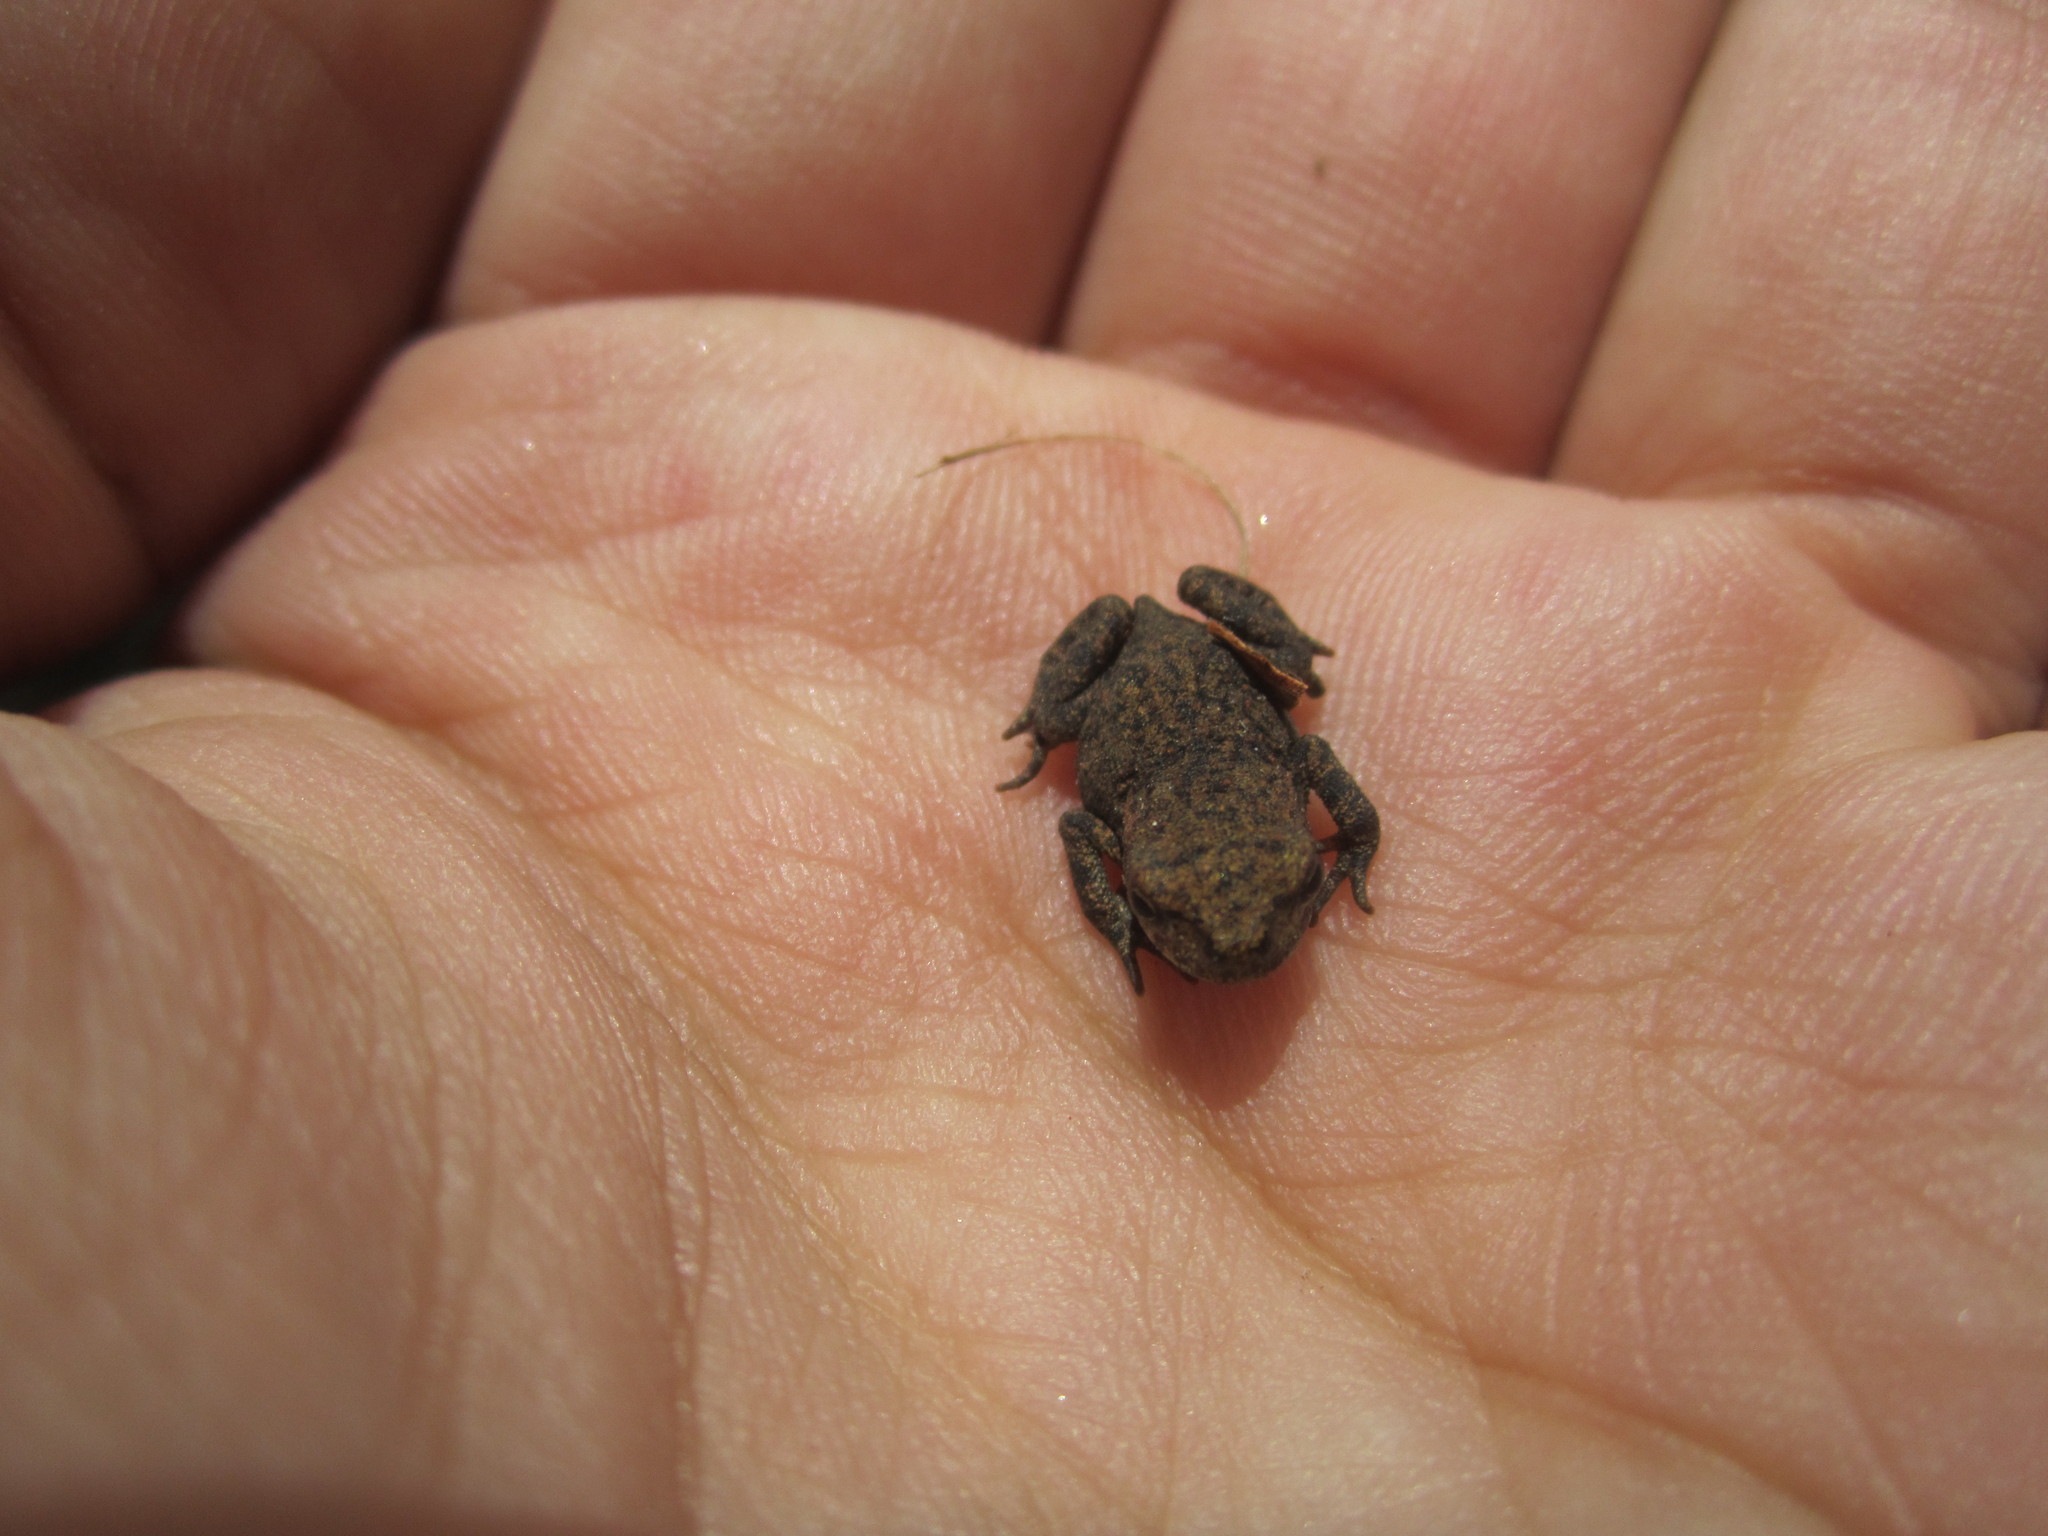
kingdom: Animalia
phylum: Chordata
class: Amphibia
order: Anura
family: Bufonidae
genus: Bufo
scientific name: Bufo spinosus
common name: Western common toad
